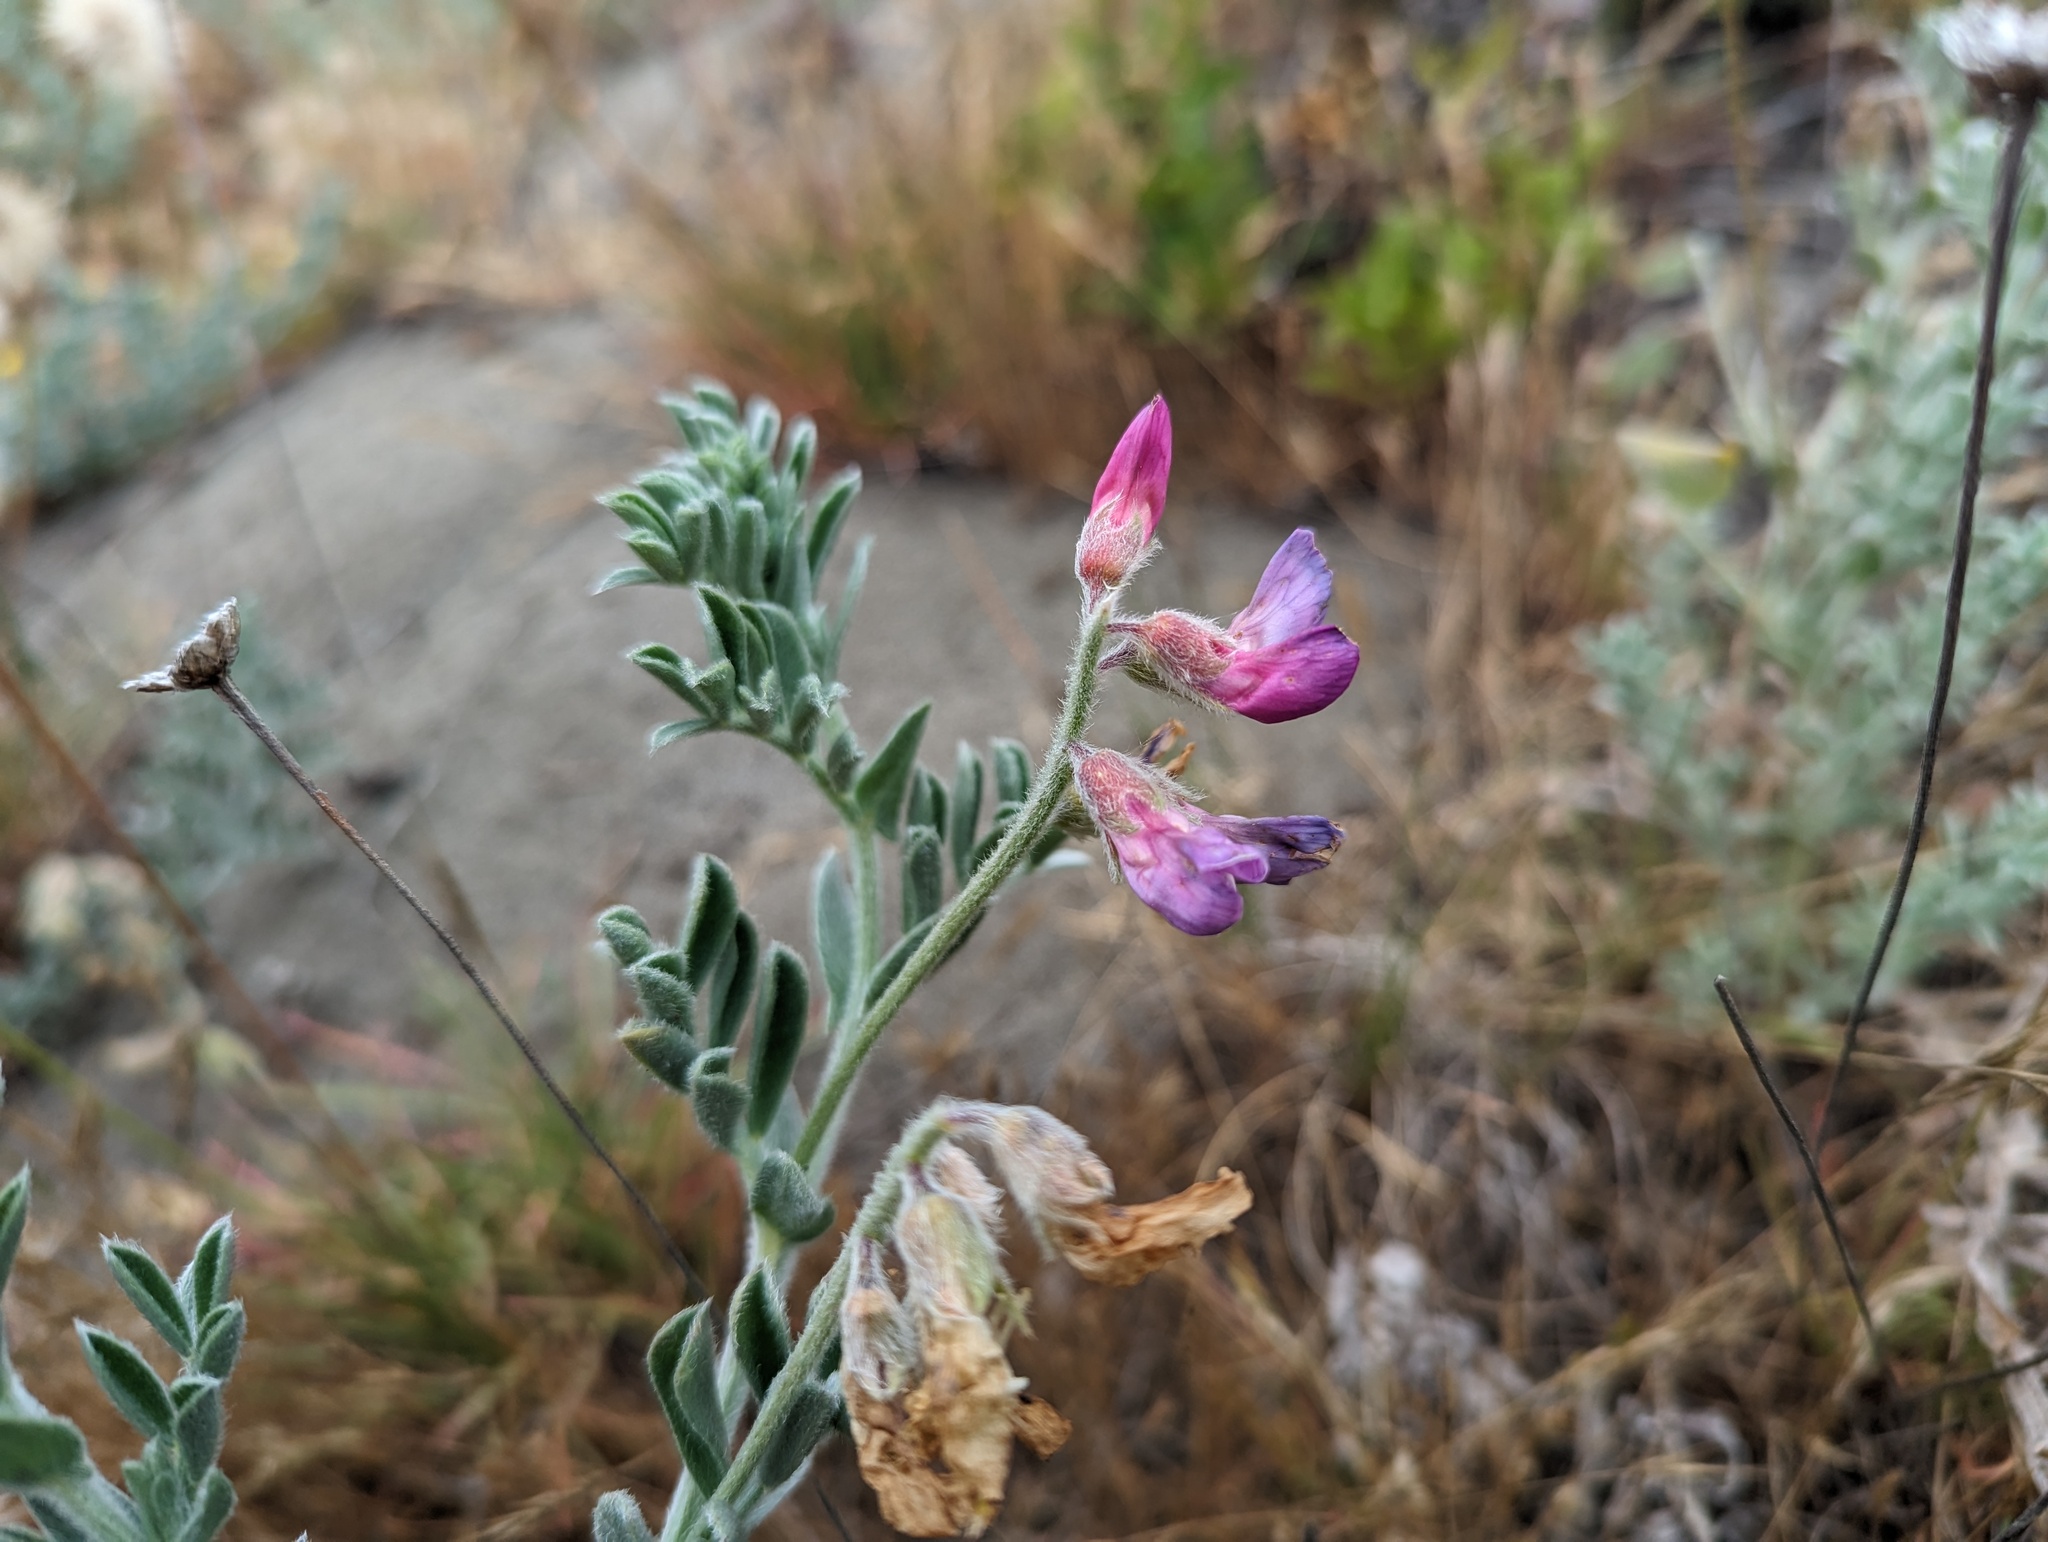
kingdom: Plantae
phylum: Tracheophyta
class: Magnoliopsida
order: Fabales
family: Fabaceae
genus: Lathyrus
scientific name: Lathyrus littoralis
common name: Dune sweet pea
